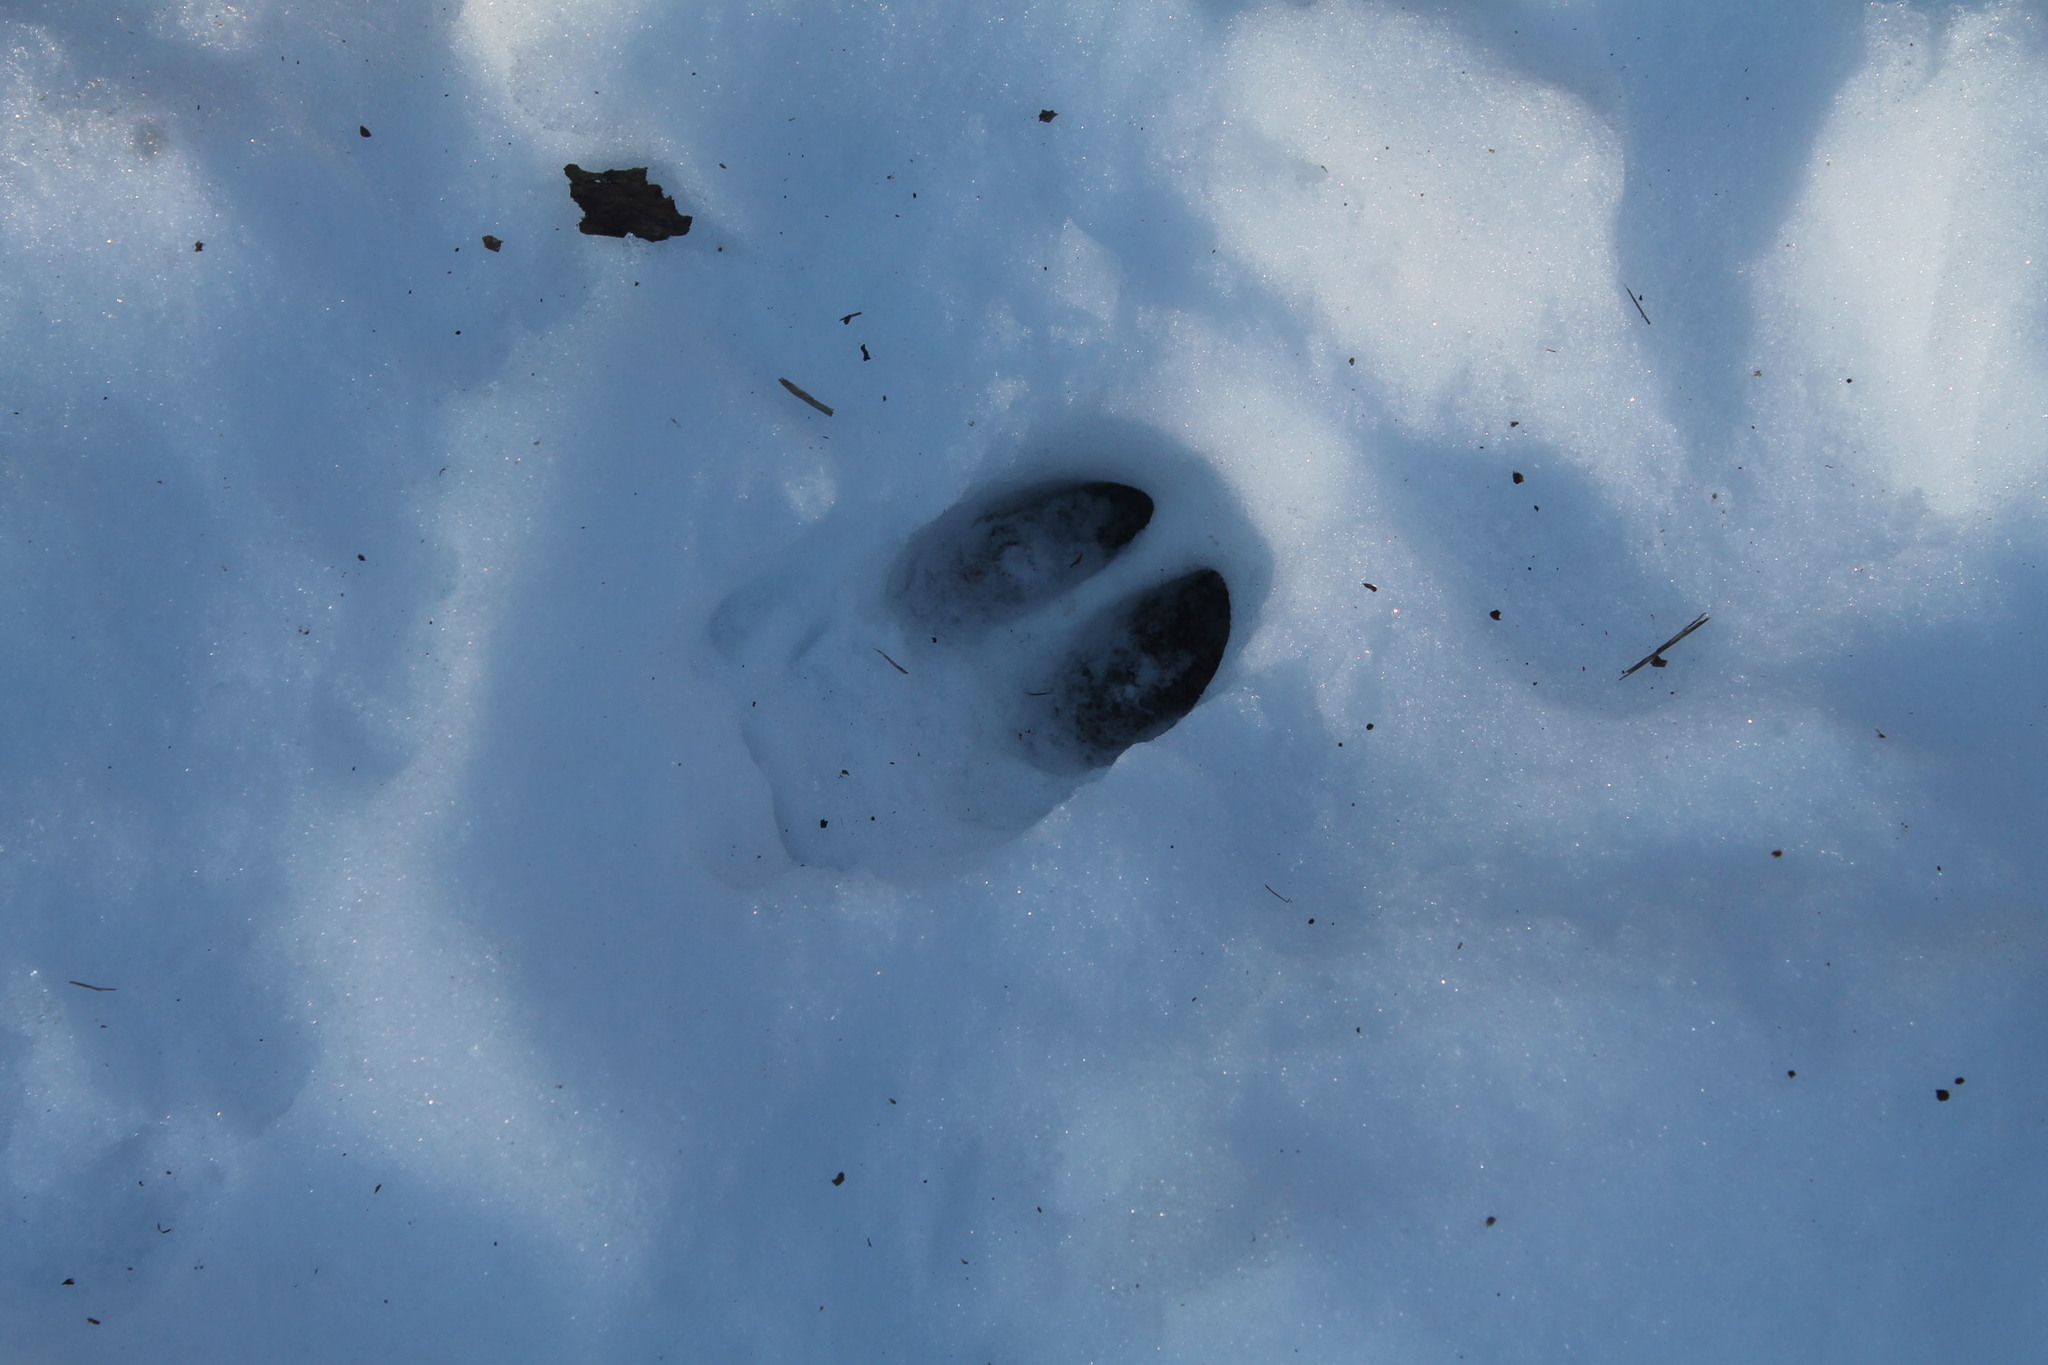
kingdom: Animalia
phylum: Chordata
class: Mammalia
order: Artiodactyla
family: Cervidae
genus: Odocoileus
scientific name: Odocoileus virginianus
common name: White-tailed deer
